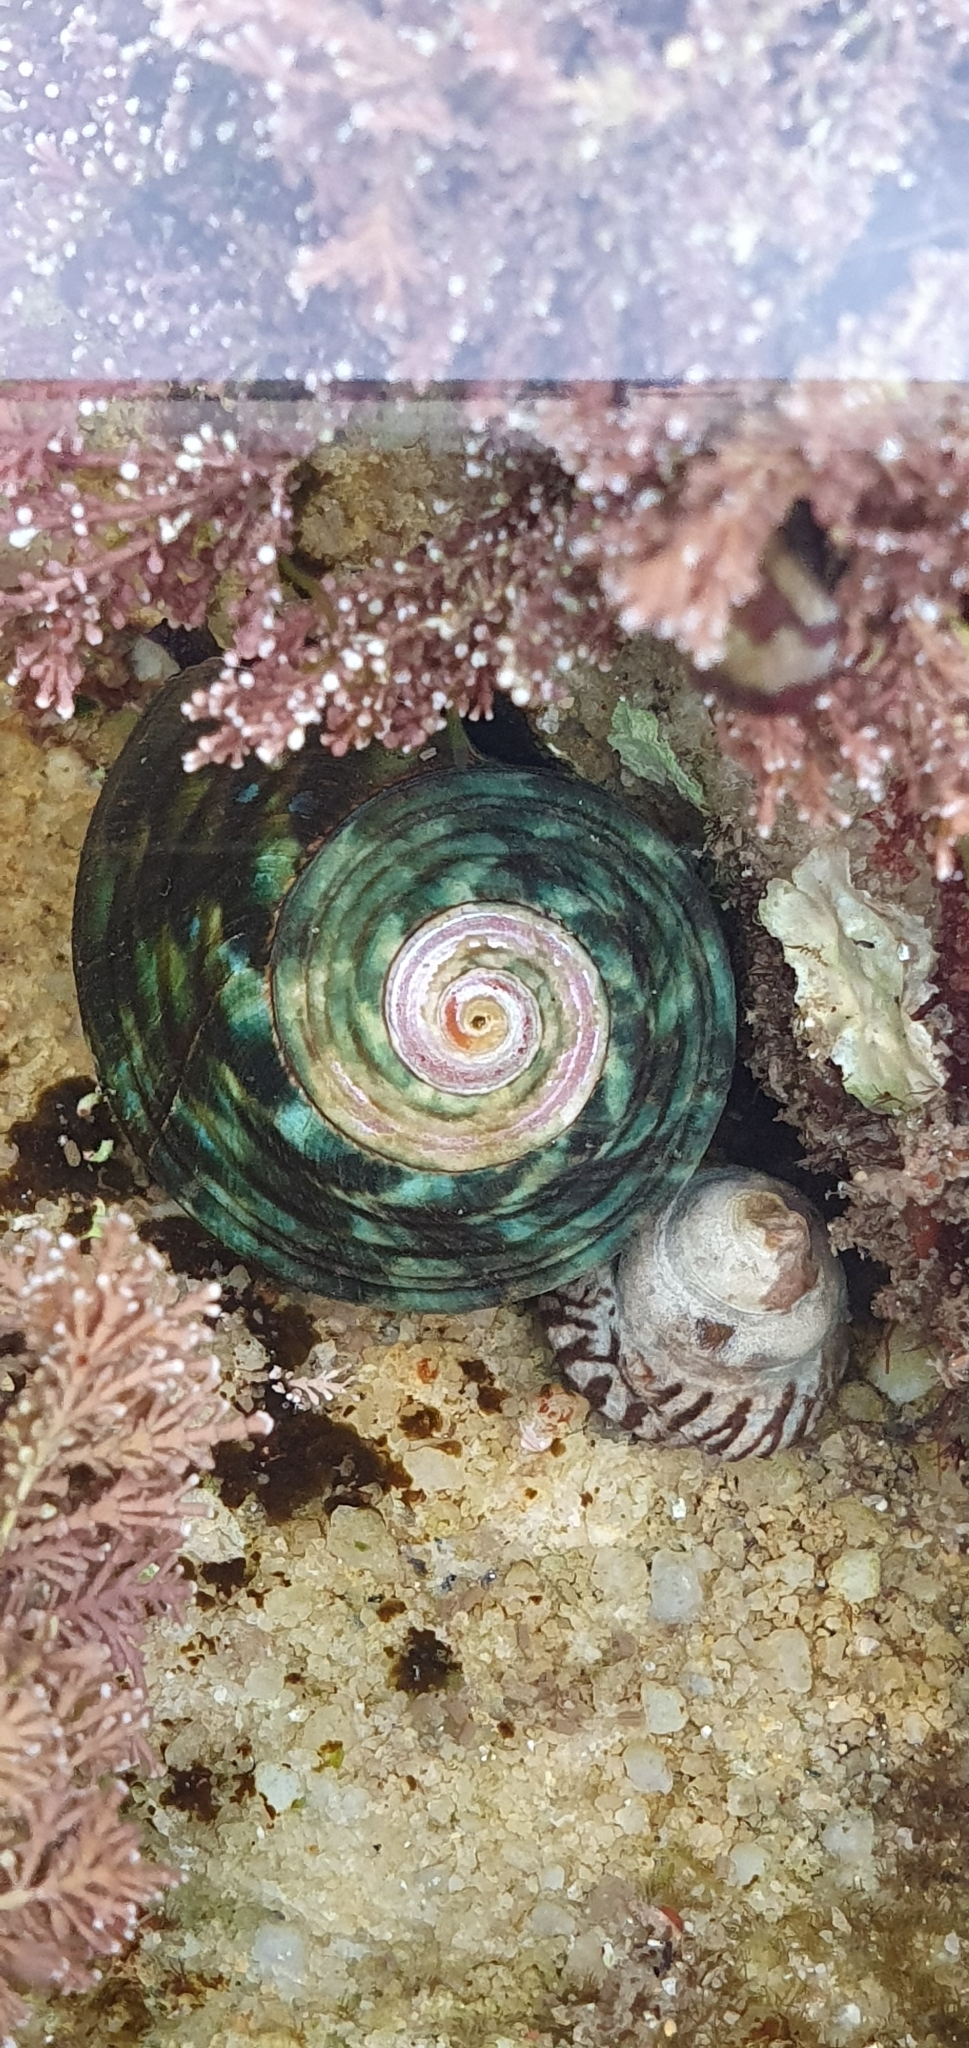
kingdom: Animalia
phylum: Mollusca
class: Gastropoda
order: Trochida
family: Turbinidae
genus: Lunella
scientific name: Lunella undulata
